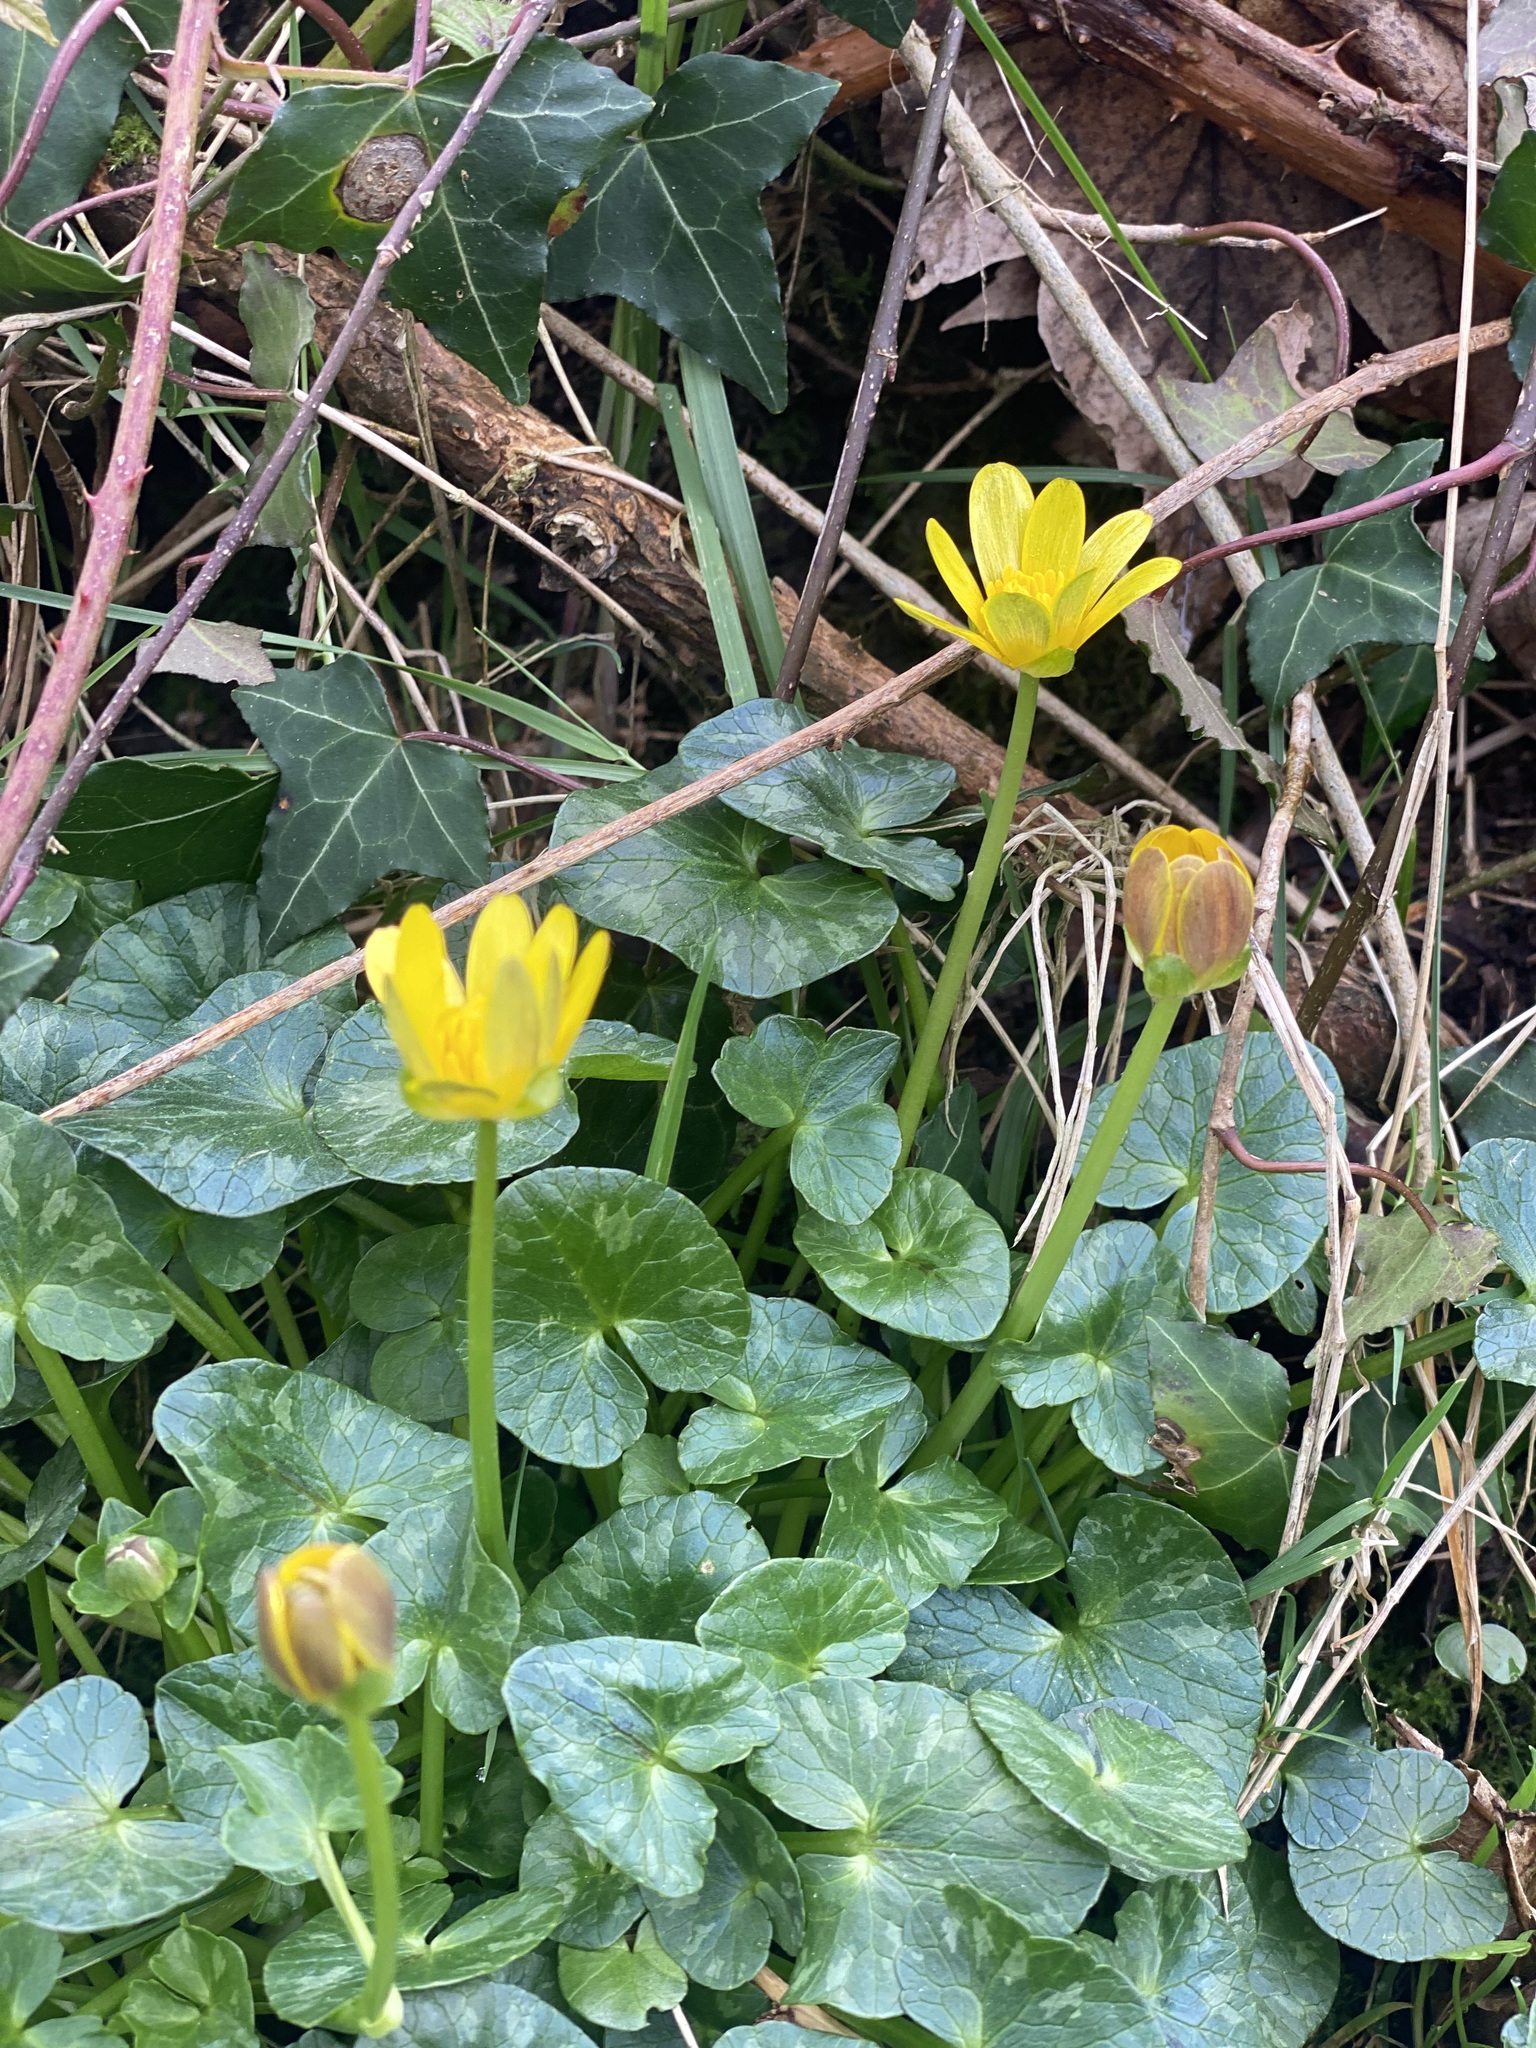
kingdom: Plantae
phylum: Tracheophyta
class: Magnoliopsida
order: Ranunculales
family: Ranunculaceae
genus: Ficaria
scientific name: Ficaria verna
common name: Lesser celandine
